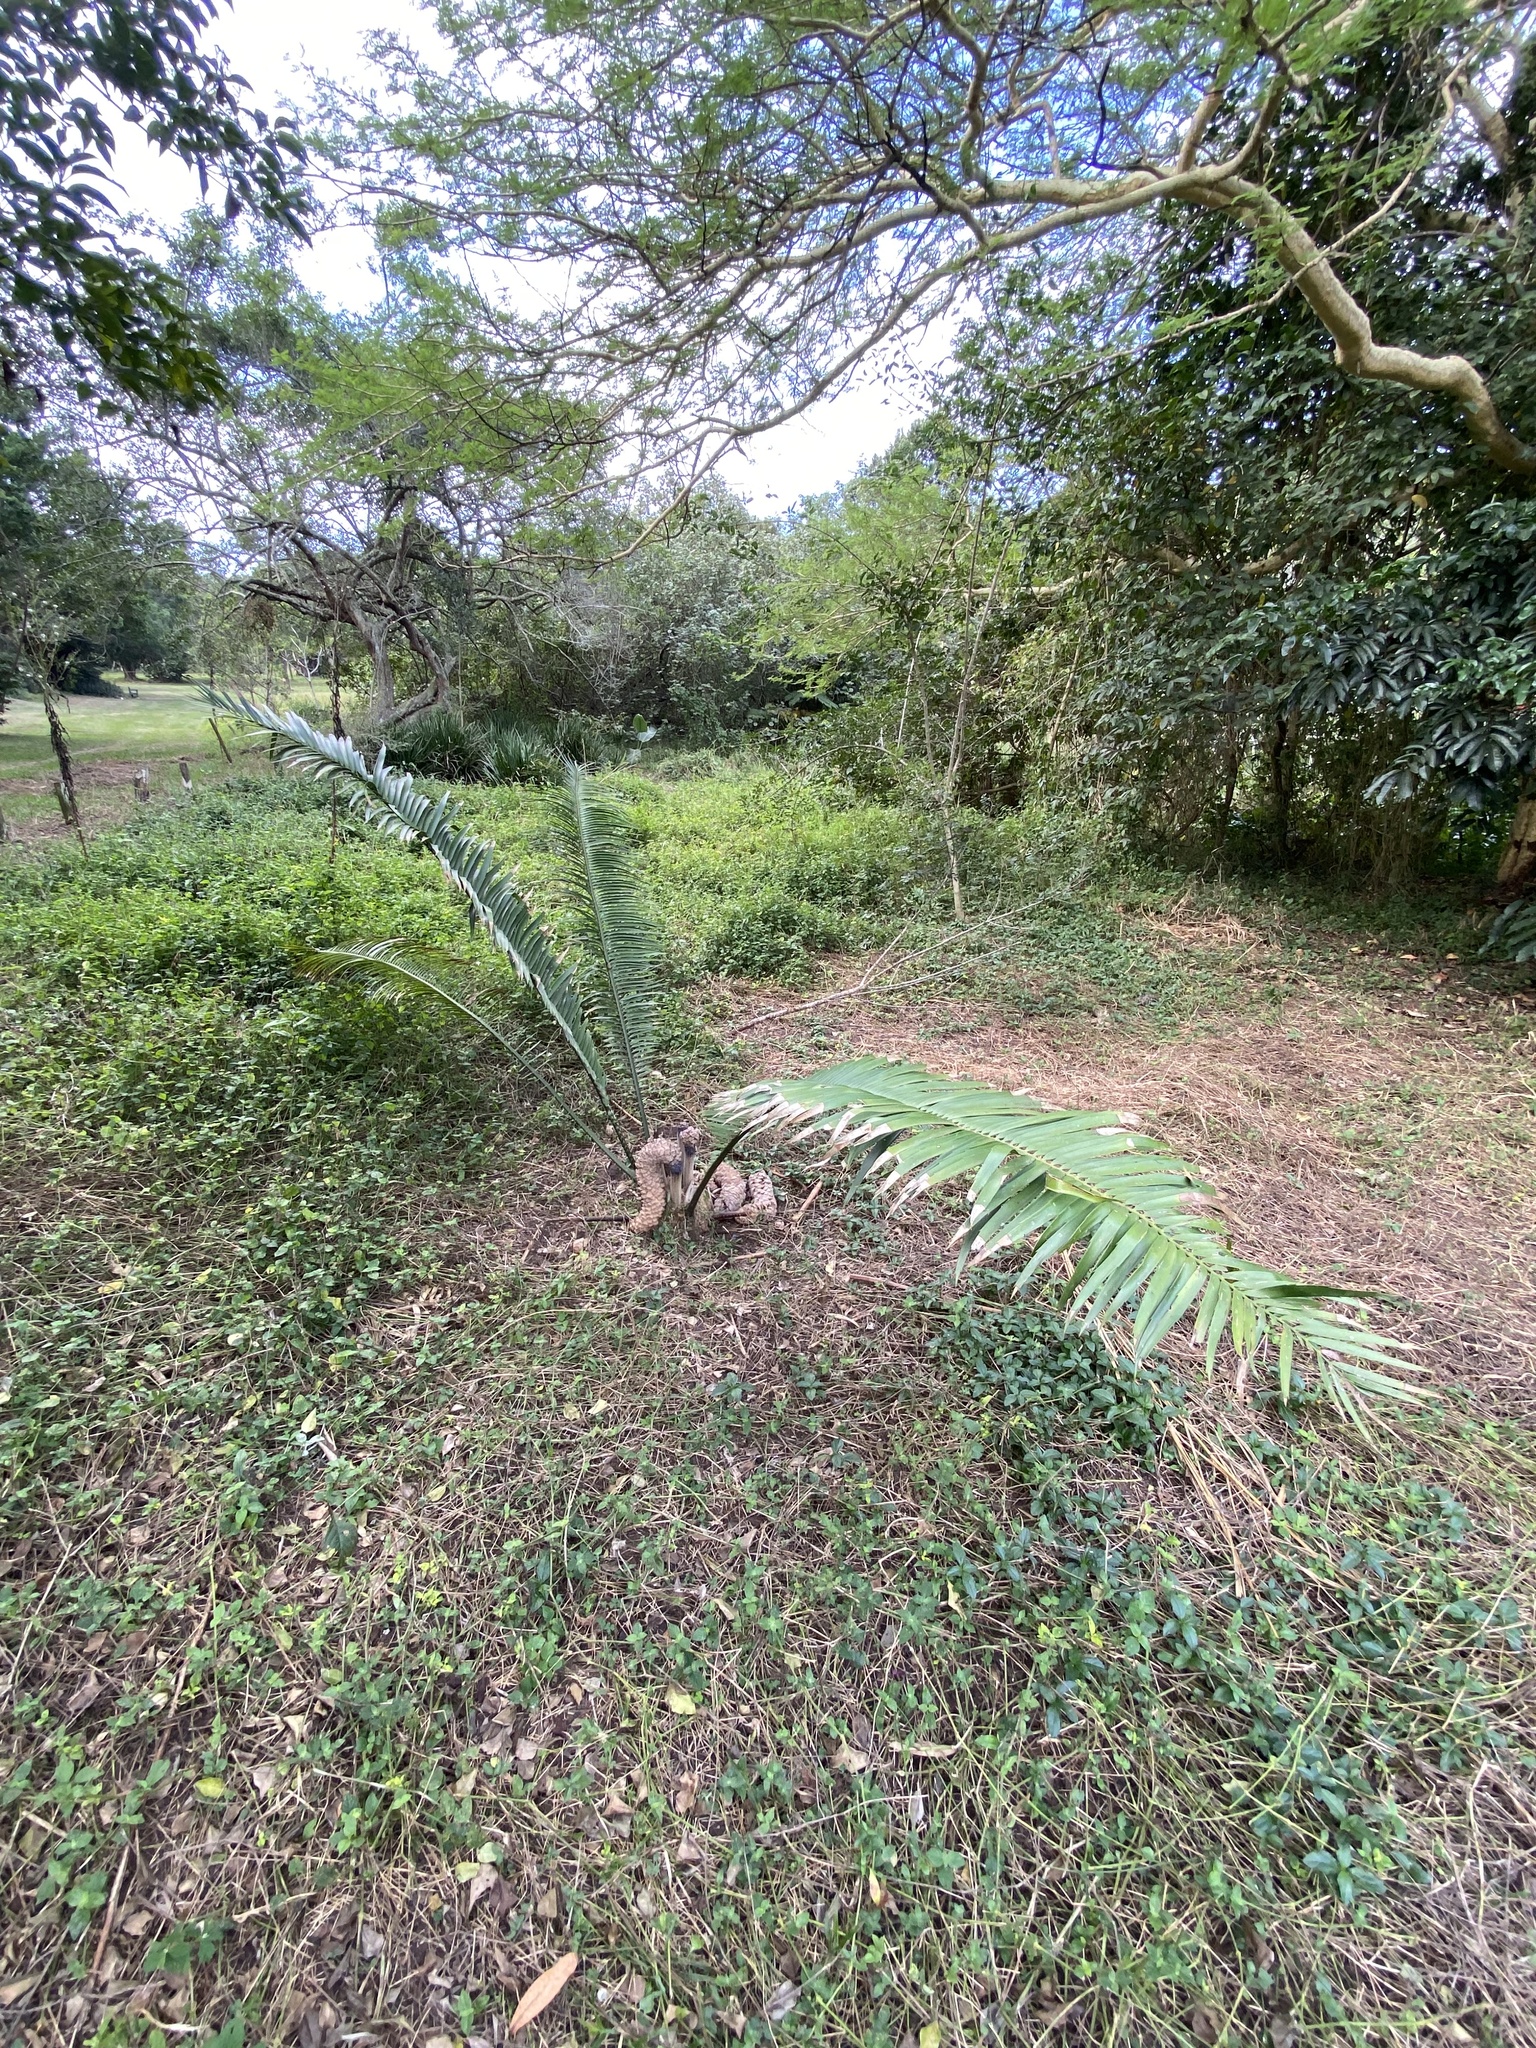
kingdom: Plantae
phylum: Tracheophyta
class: Cycadopsida
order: Cycadales
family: Zamiaceae
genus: Encephalartos
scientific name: Encephalartos villosus
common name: Poor man's cycad
